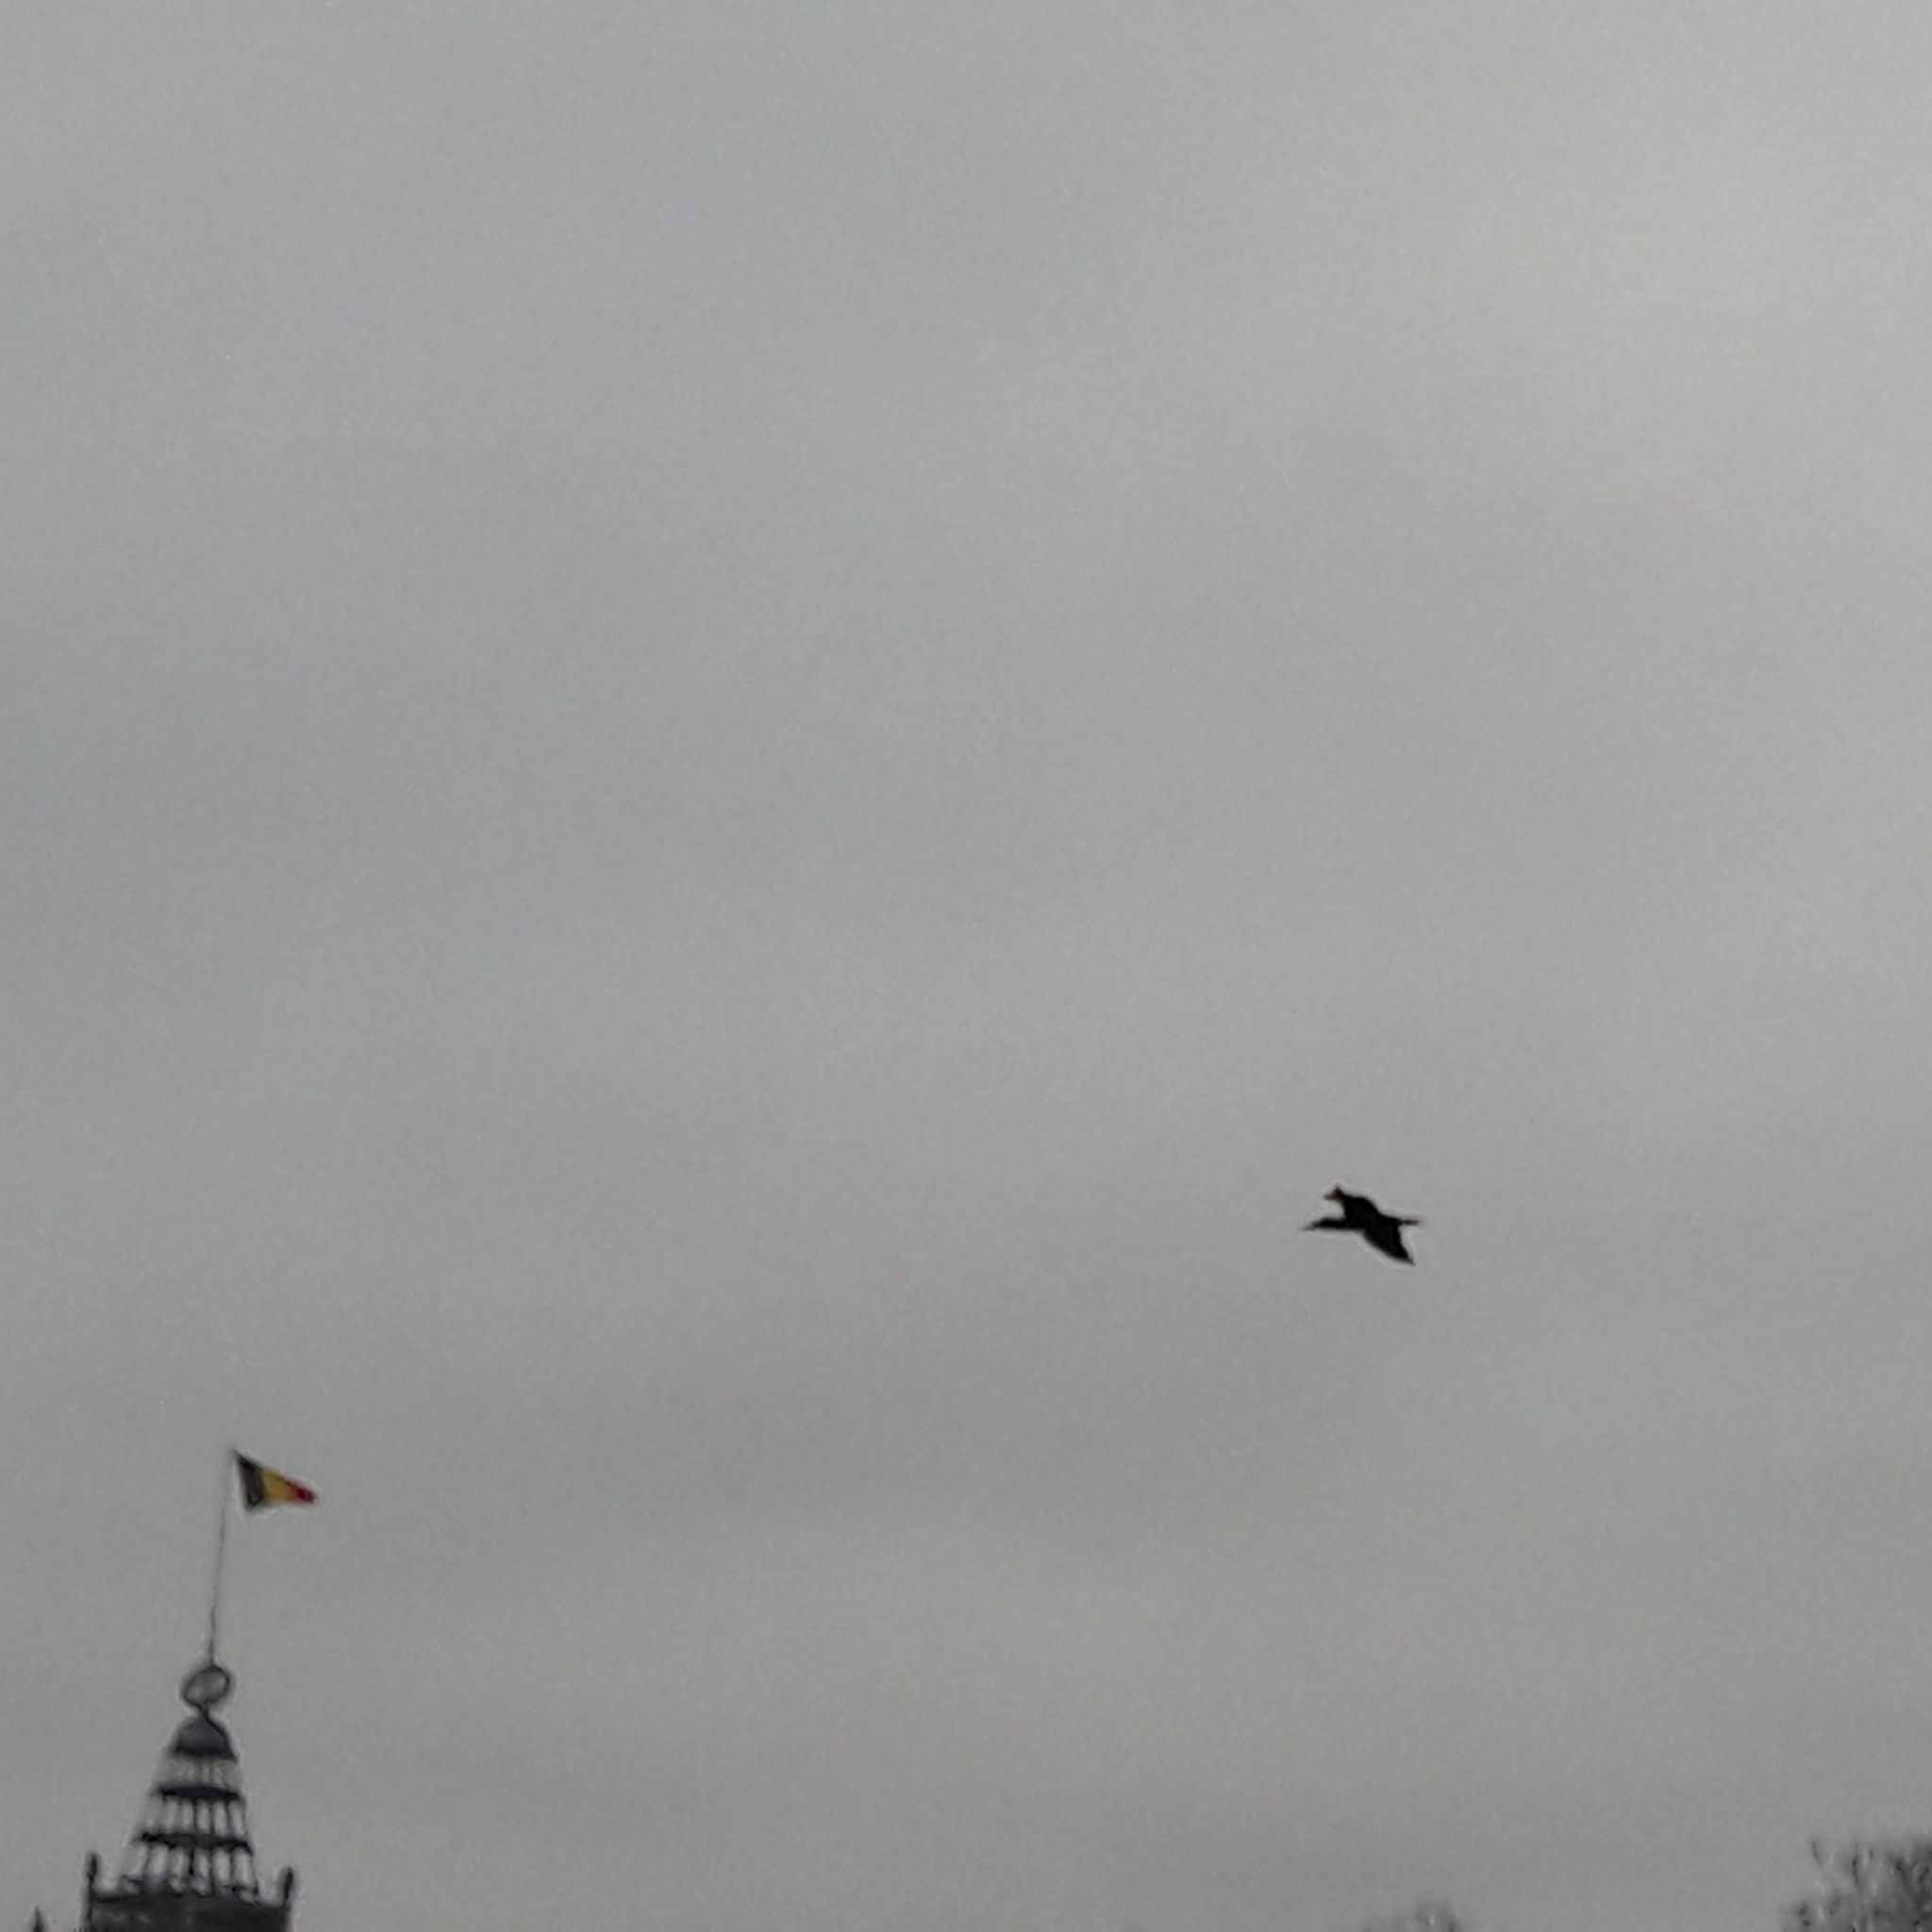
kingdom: Animalia
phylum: Chordata
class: Aves
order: Suliformes
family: Phalacrocoracidae
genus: Phalacrocorax
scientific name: Phalacrocorax carbo
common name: Great cormorant
